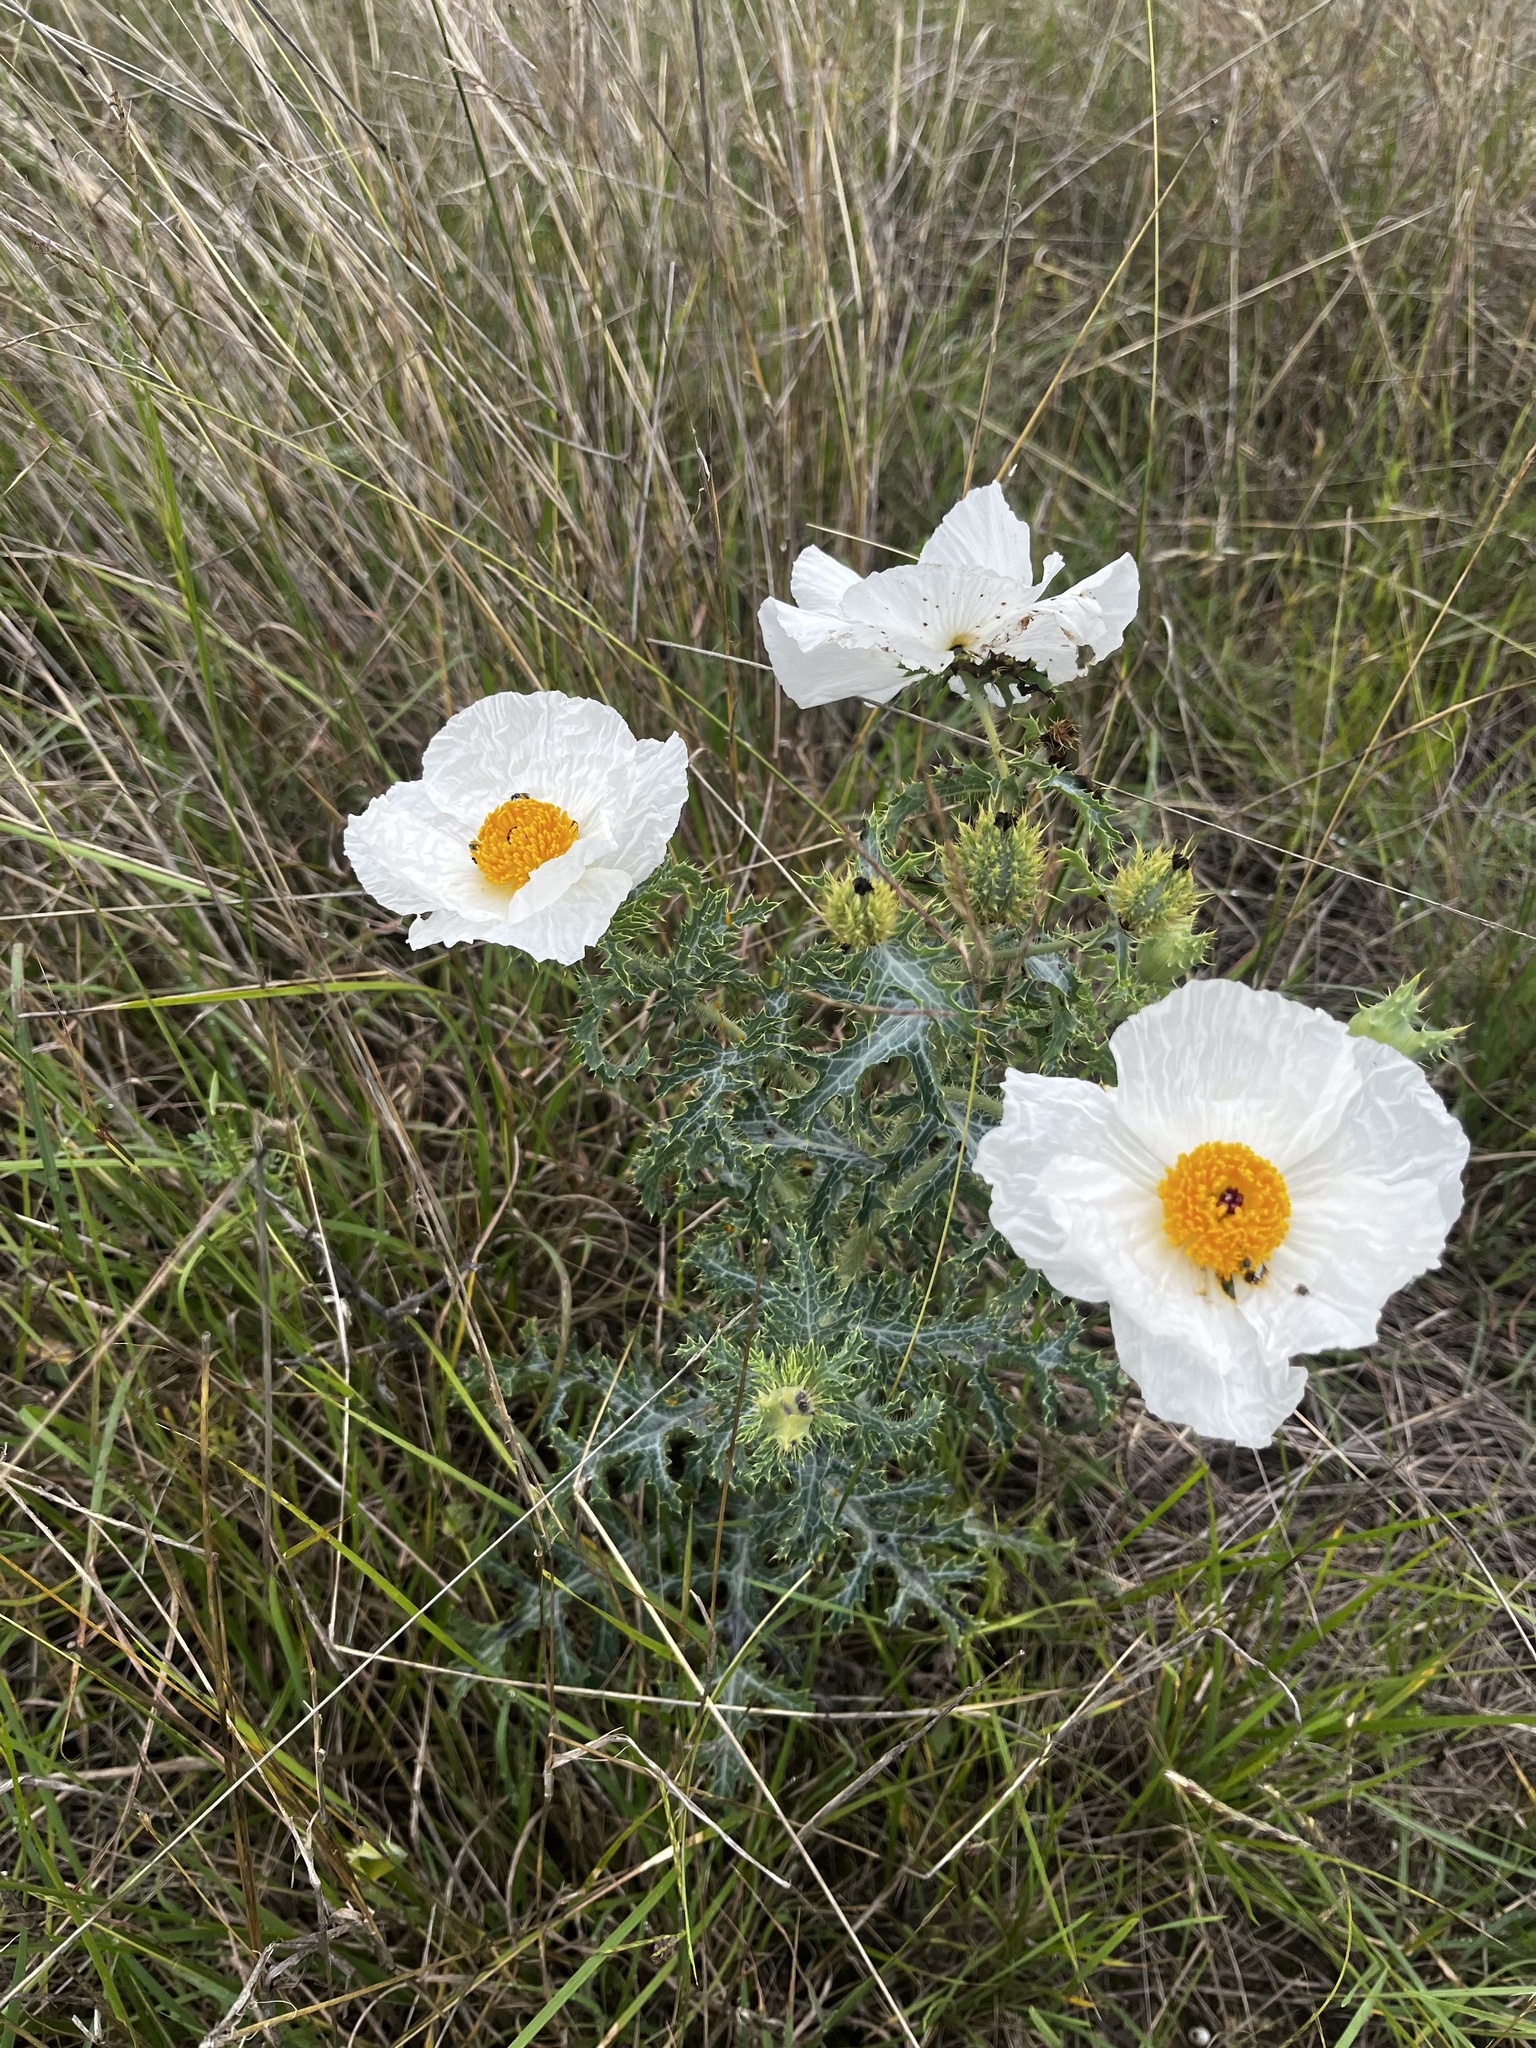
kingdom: Plantae
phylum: Tracheophyta
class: Magnoliopsida
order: Ranunculales
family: Papaveraceae
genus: Argemone
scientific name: Argemone aurantiaca
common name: Texas prickly-poppy
